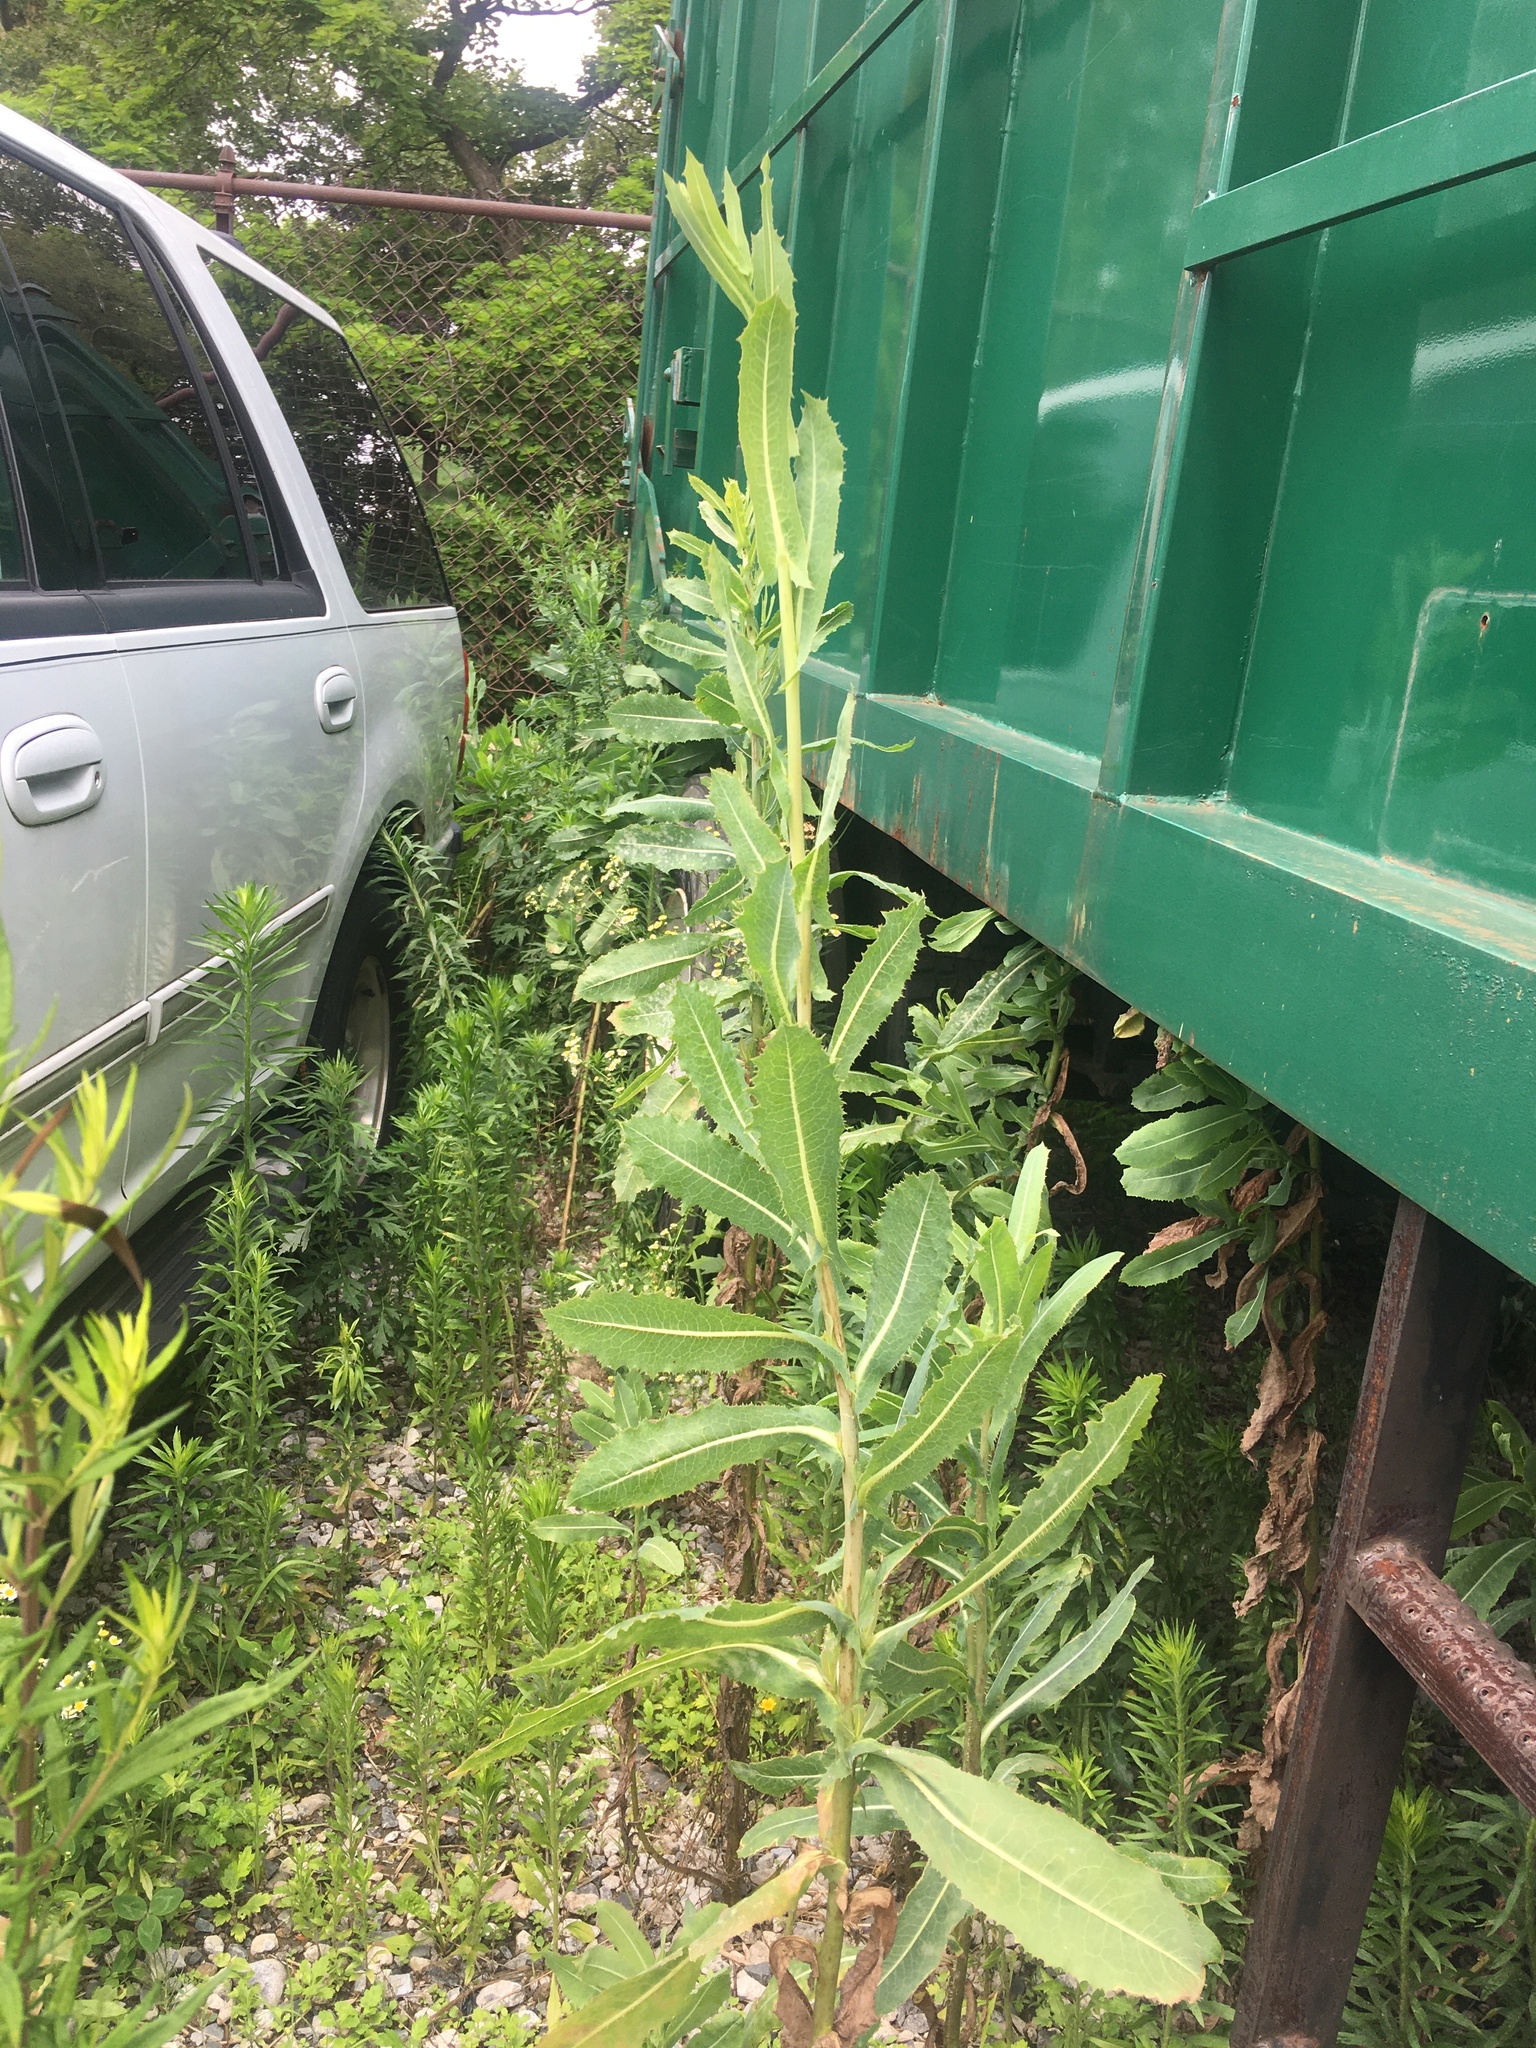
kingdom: Plantae
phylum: Tracheophyta
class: Magnoliopsida
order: Asterales
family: Asteraceae
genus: Lactuca
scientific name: Lactuca serriola
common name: Prickly lettuce
